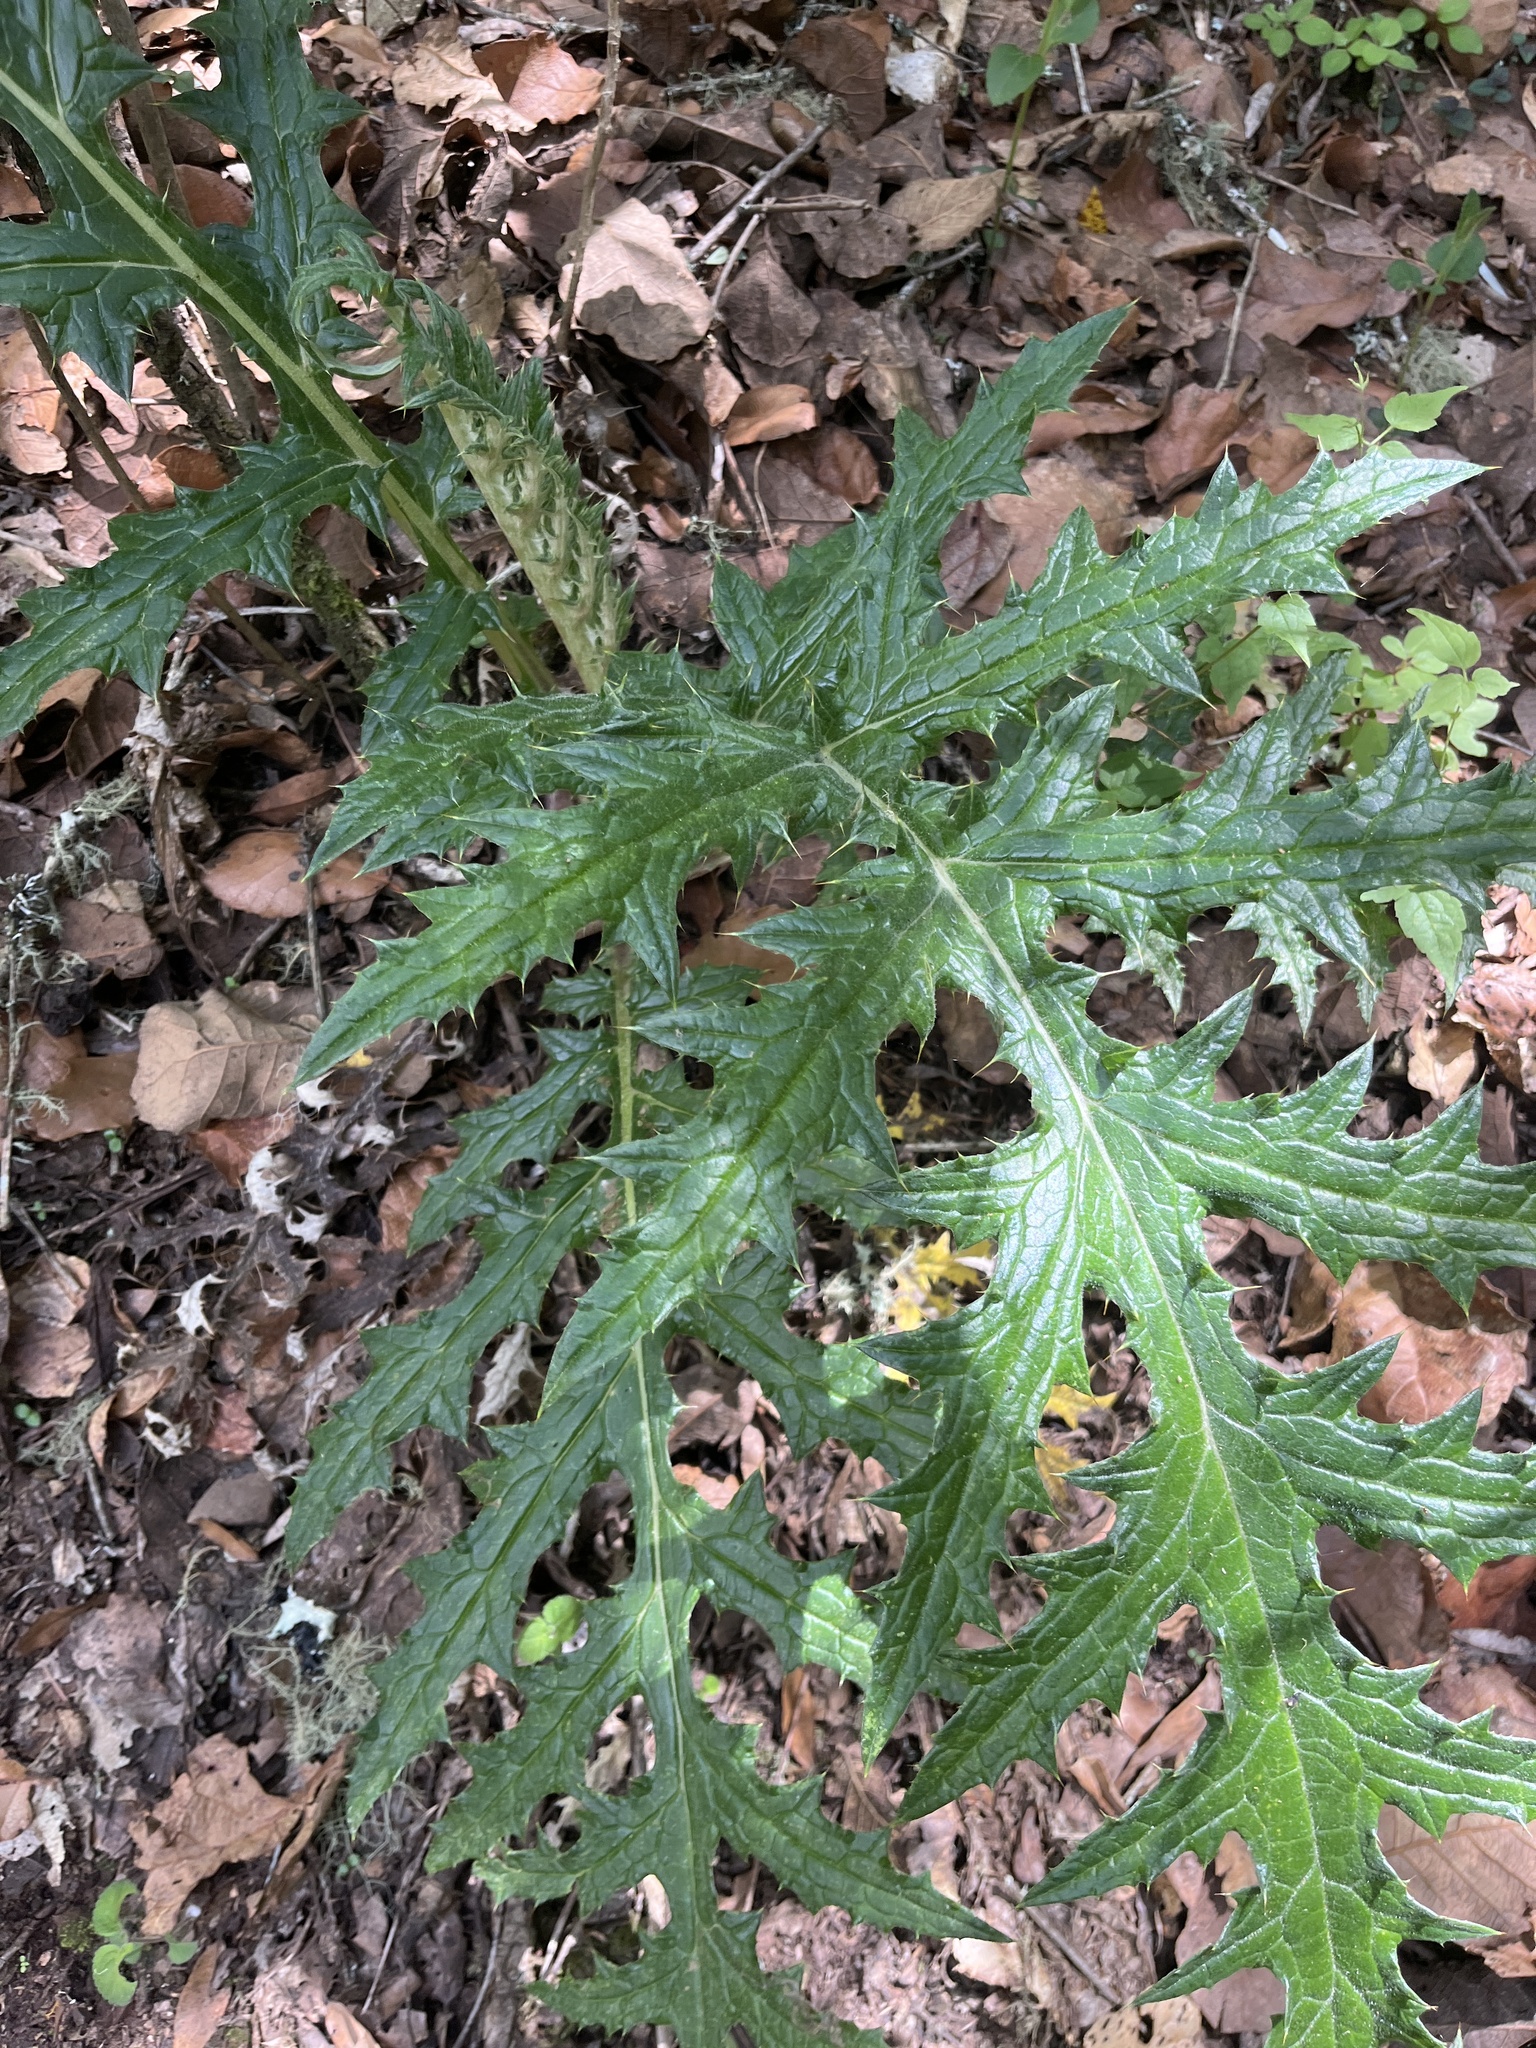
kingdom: Plantae
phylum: Tracheophyta
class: Magnoliopsida
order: Asterales
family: Asteraceae
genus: Cirsium
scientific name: Cirsium subcoriaceum
